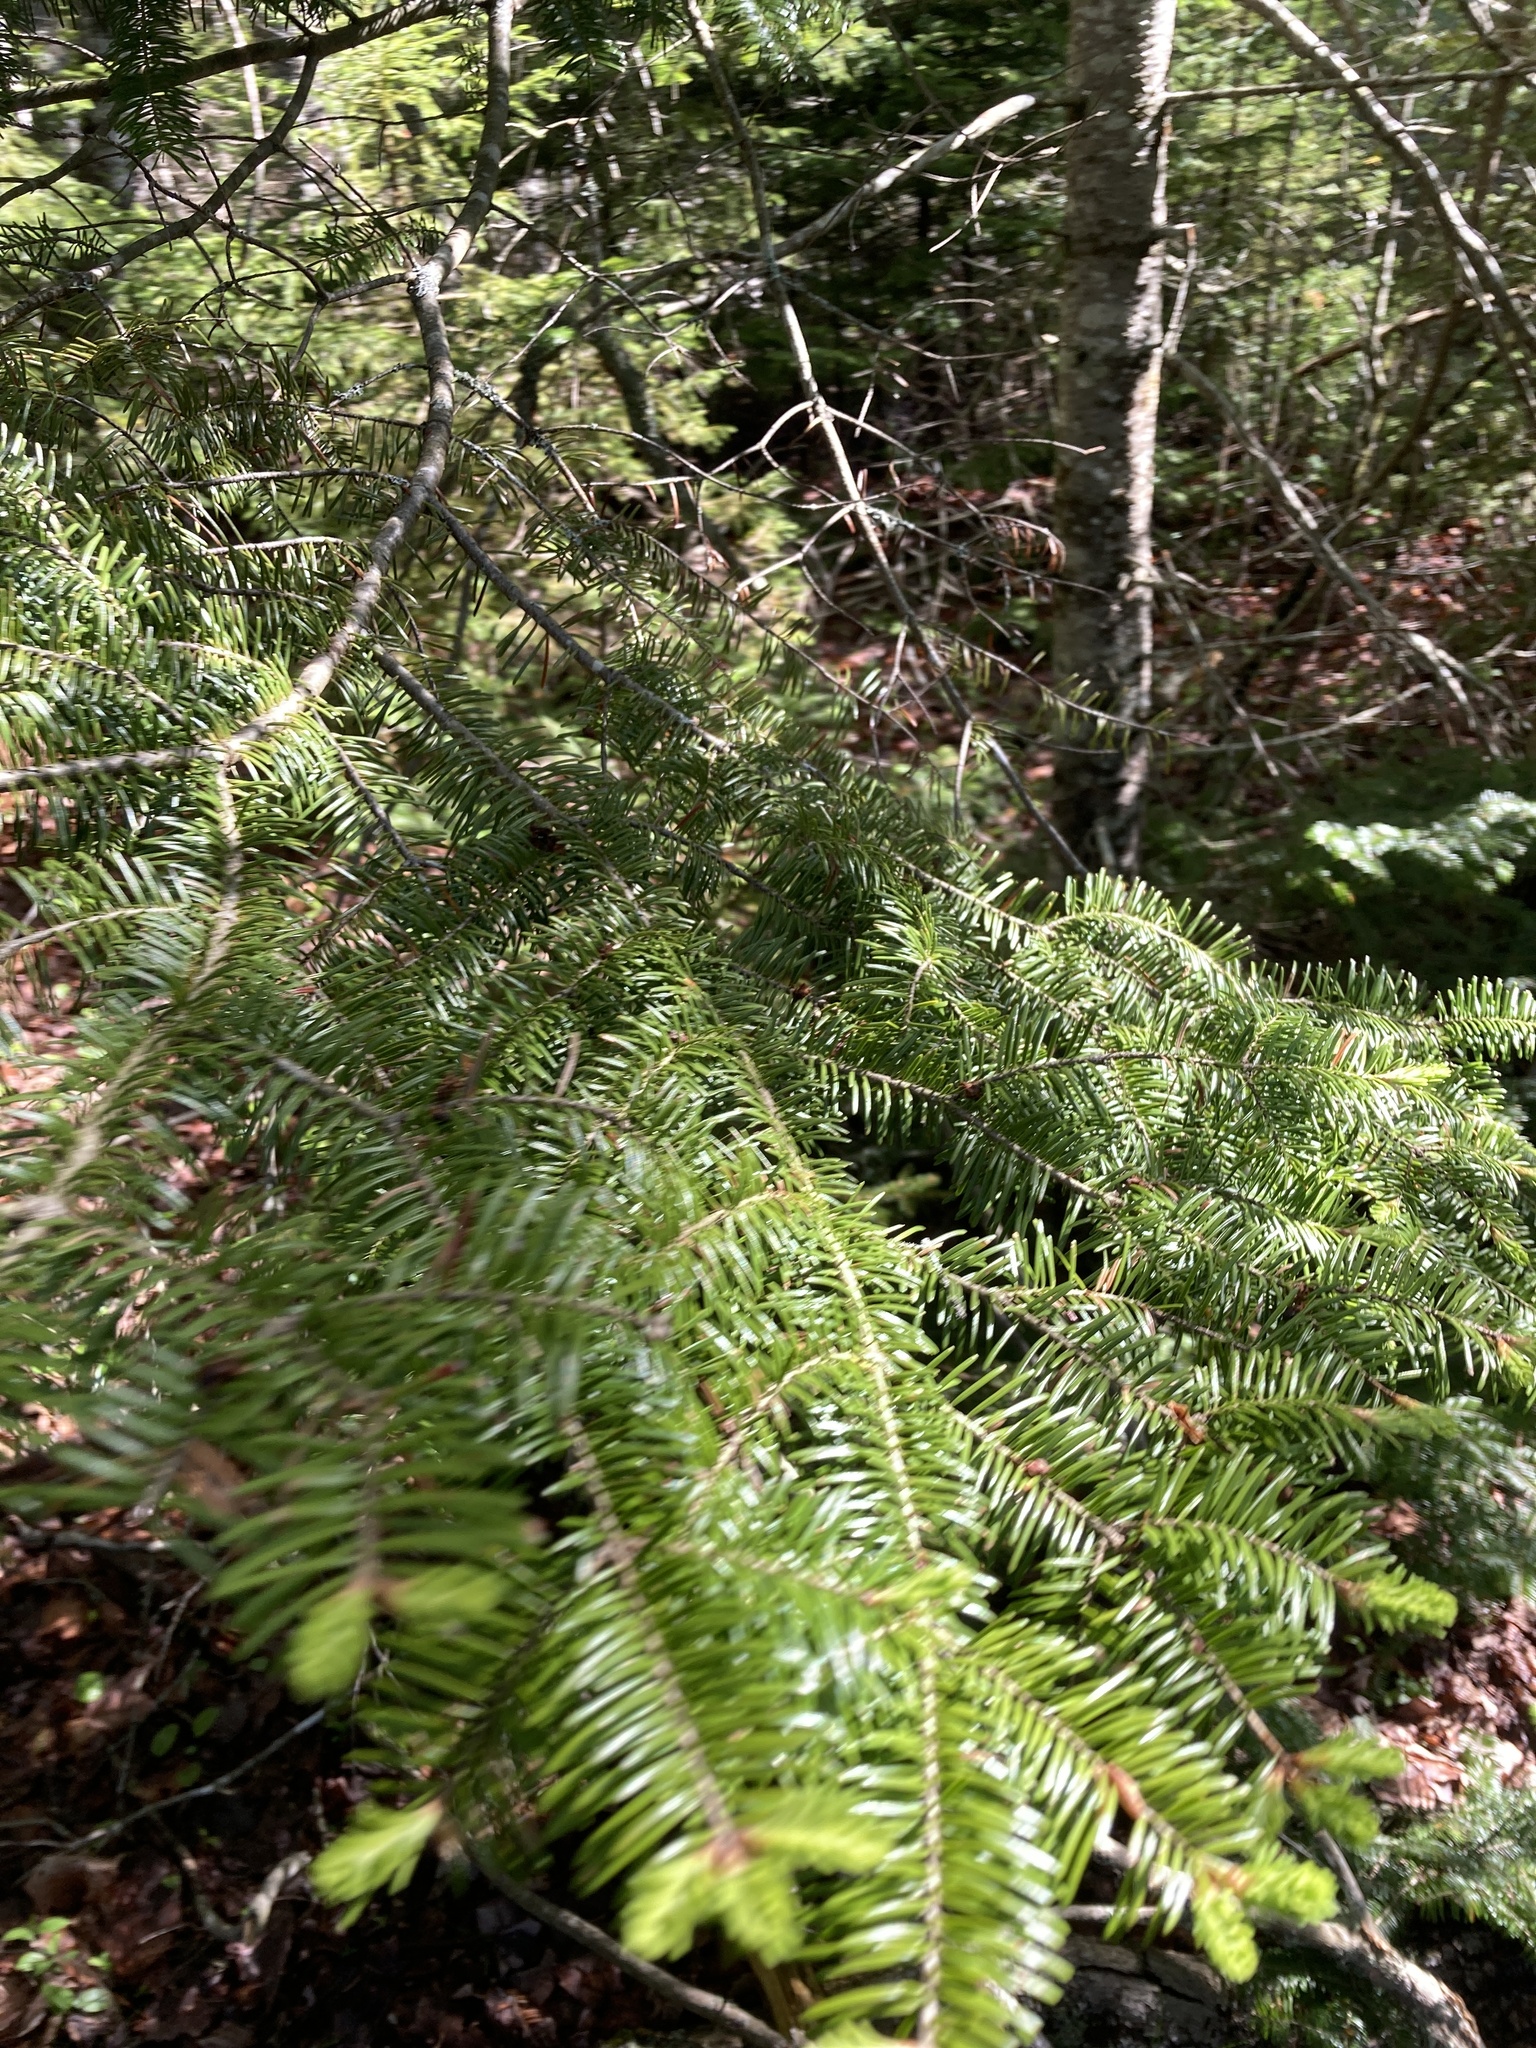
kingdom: Plantae
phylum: Tracheophyta
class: Pinopsida
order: Pinales
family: Pinaceae
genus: Abies
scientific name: Abies balsamea
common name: Balsam fir
